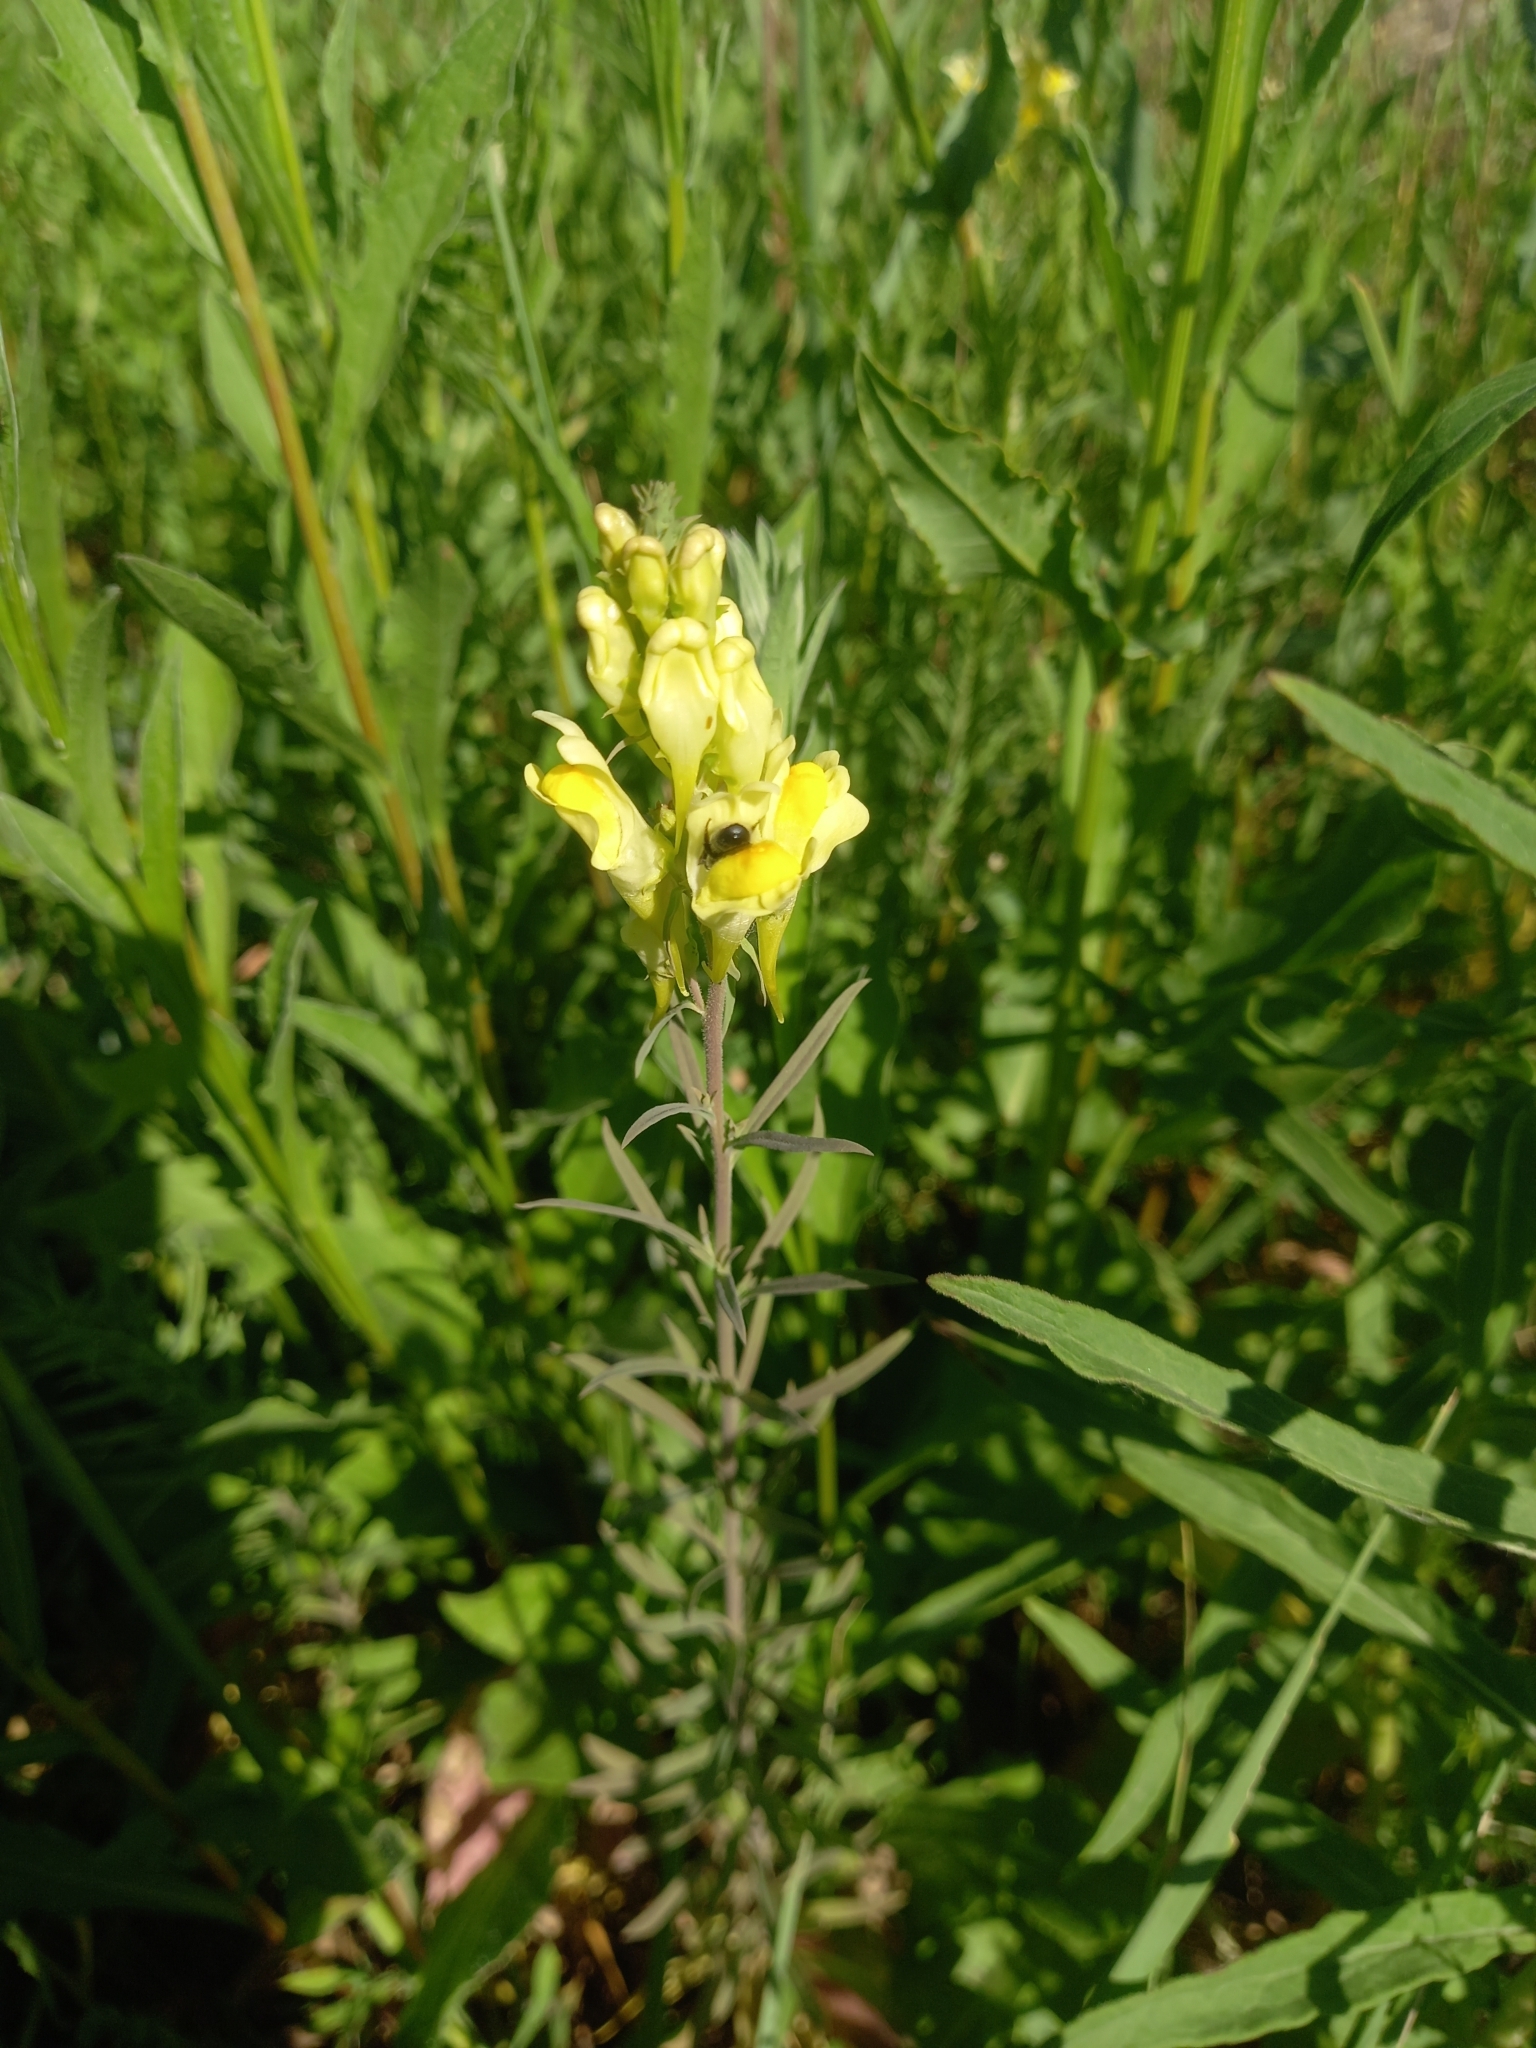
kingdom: Plantae
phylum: Tracheophyta
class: Magnoliopsida
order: Lamiales
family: Plantaginaceae
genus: Linaria
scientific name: Linaria vulgaris
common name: Butter and eggs
